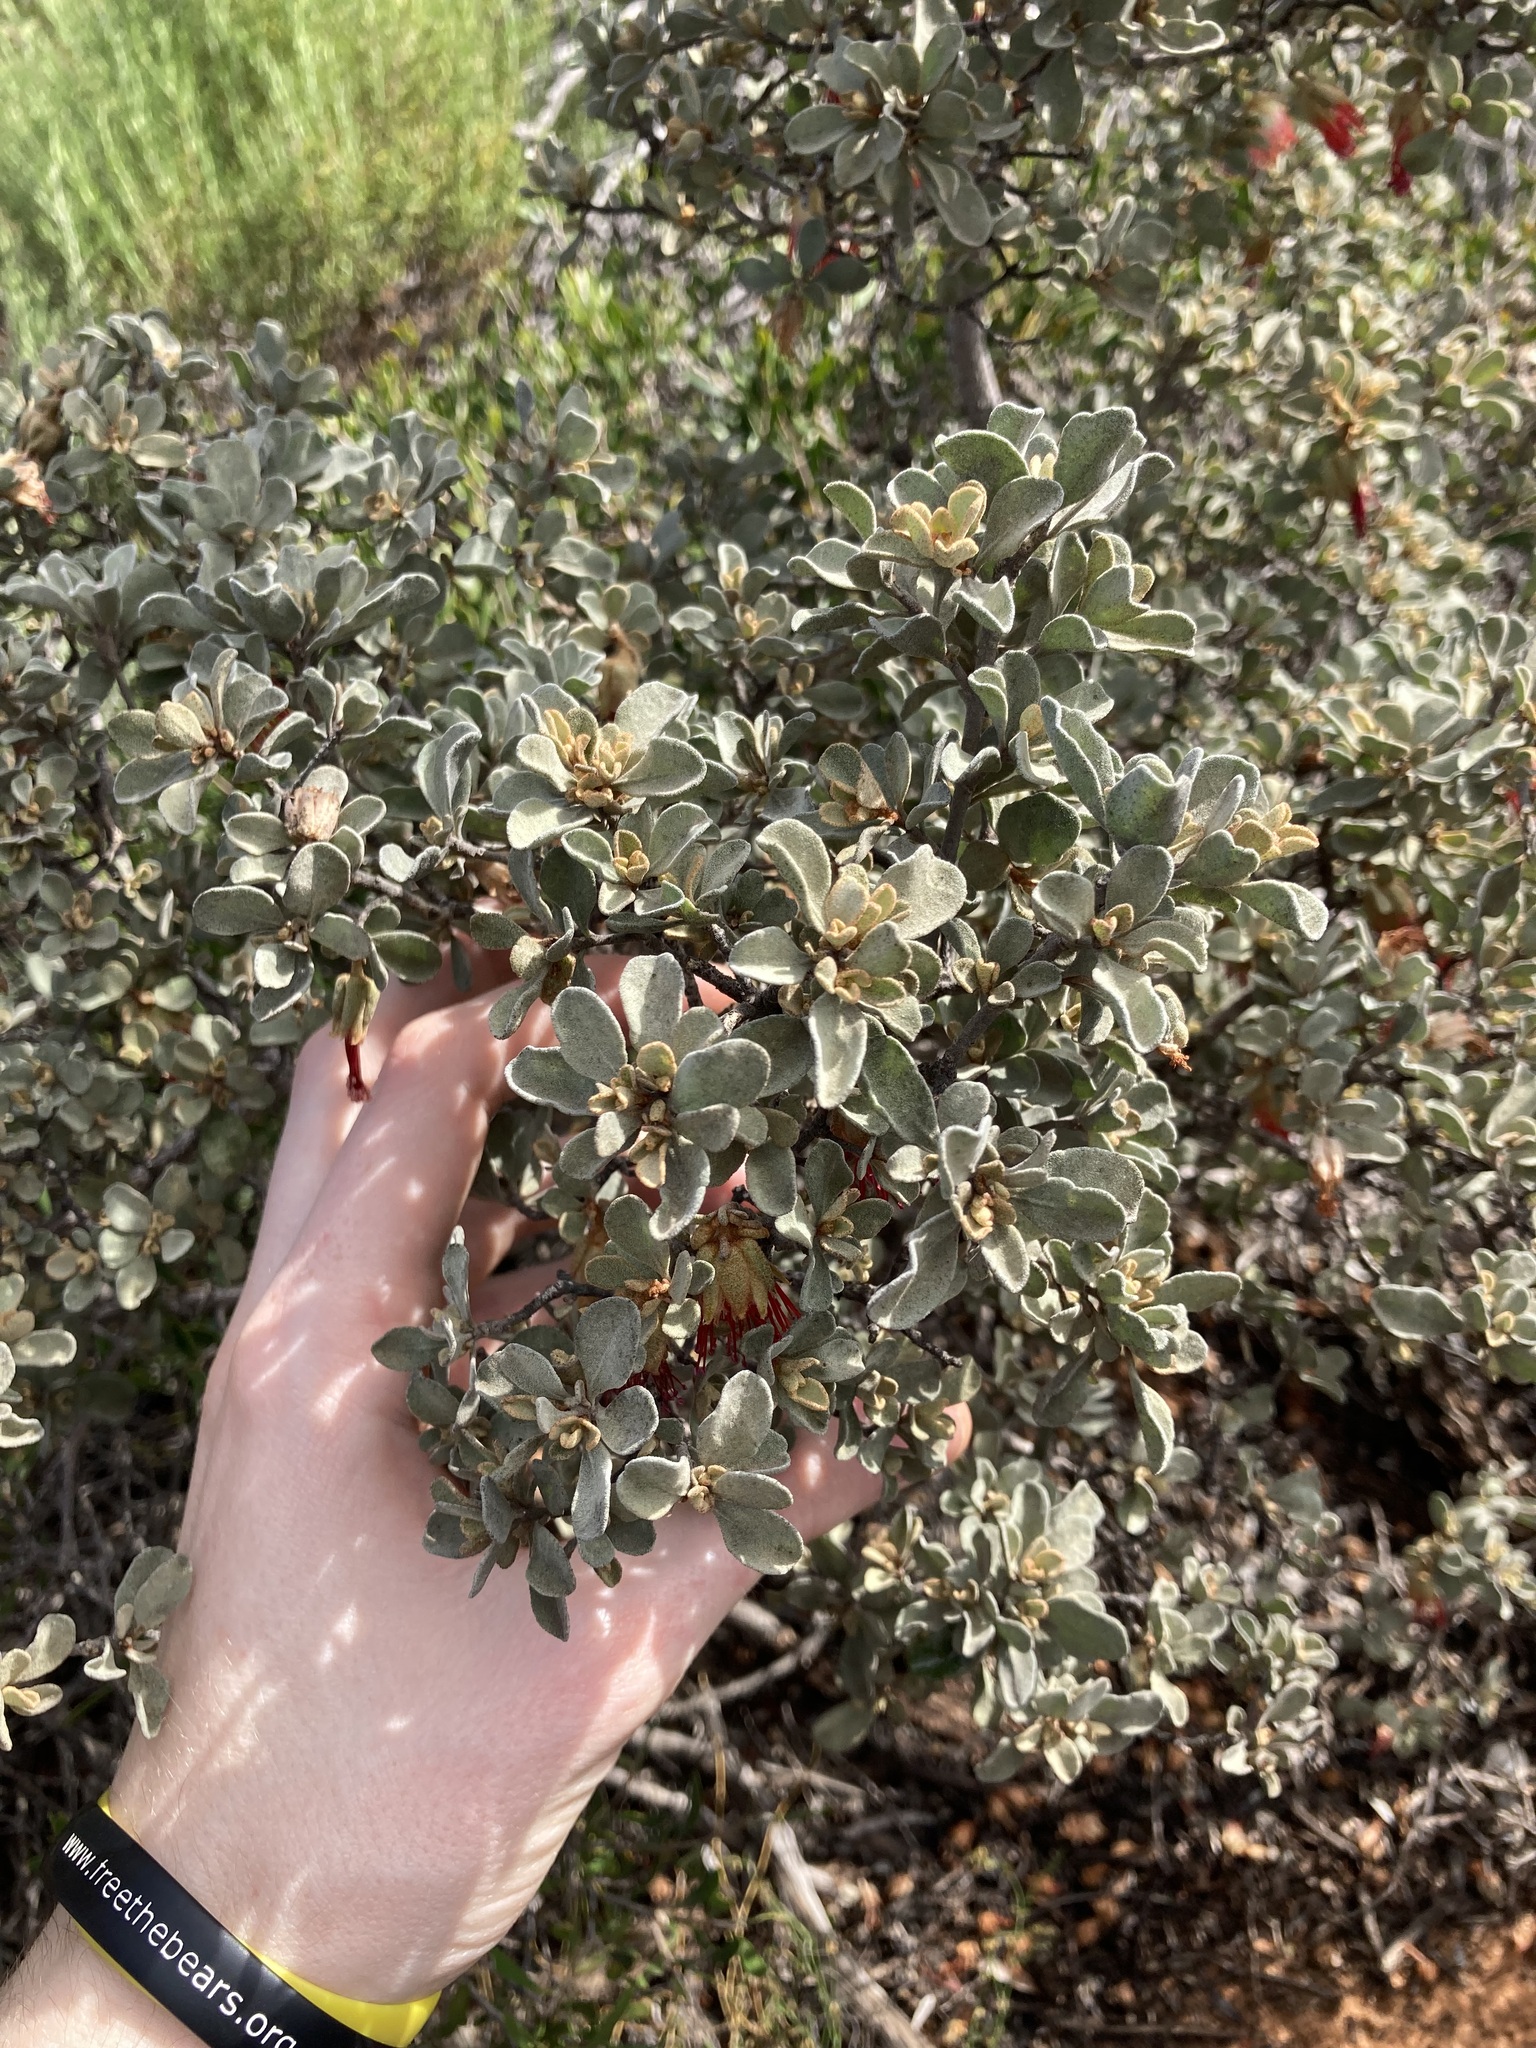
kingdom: Plantae
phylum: Tracheophyta
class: Magnoliopsida
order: Sapindales
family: Rutaceae
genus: Diplolaena
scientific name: Diplolaena mollis
